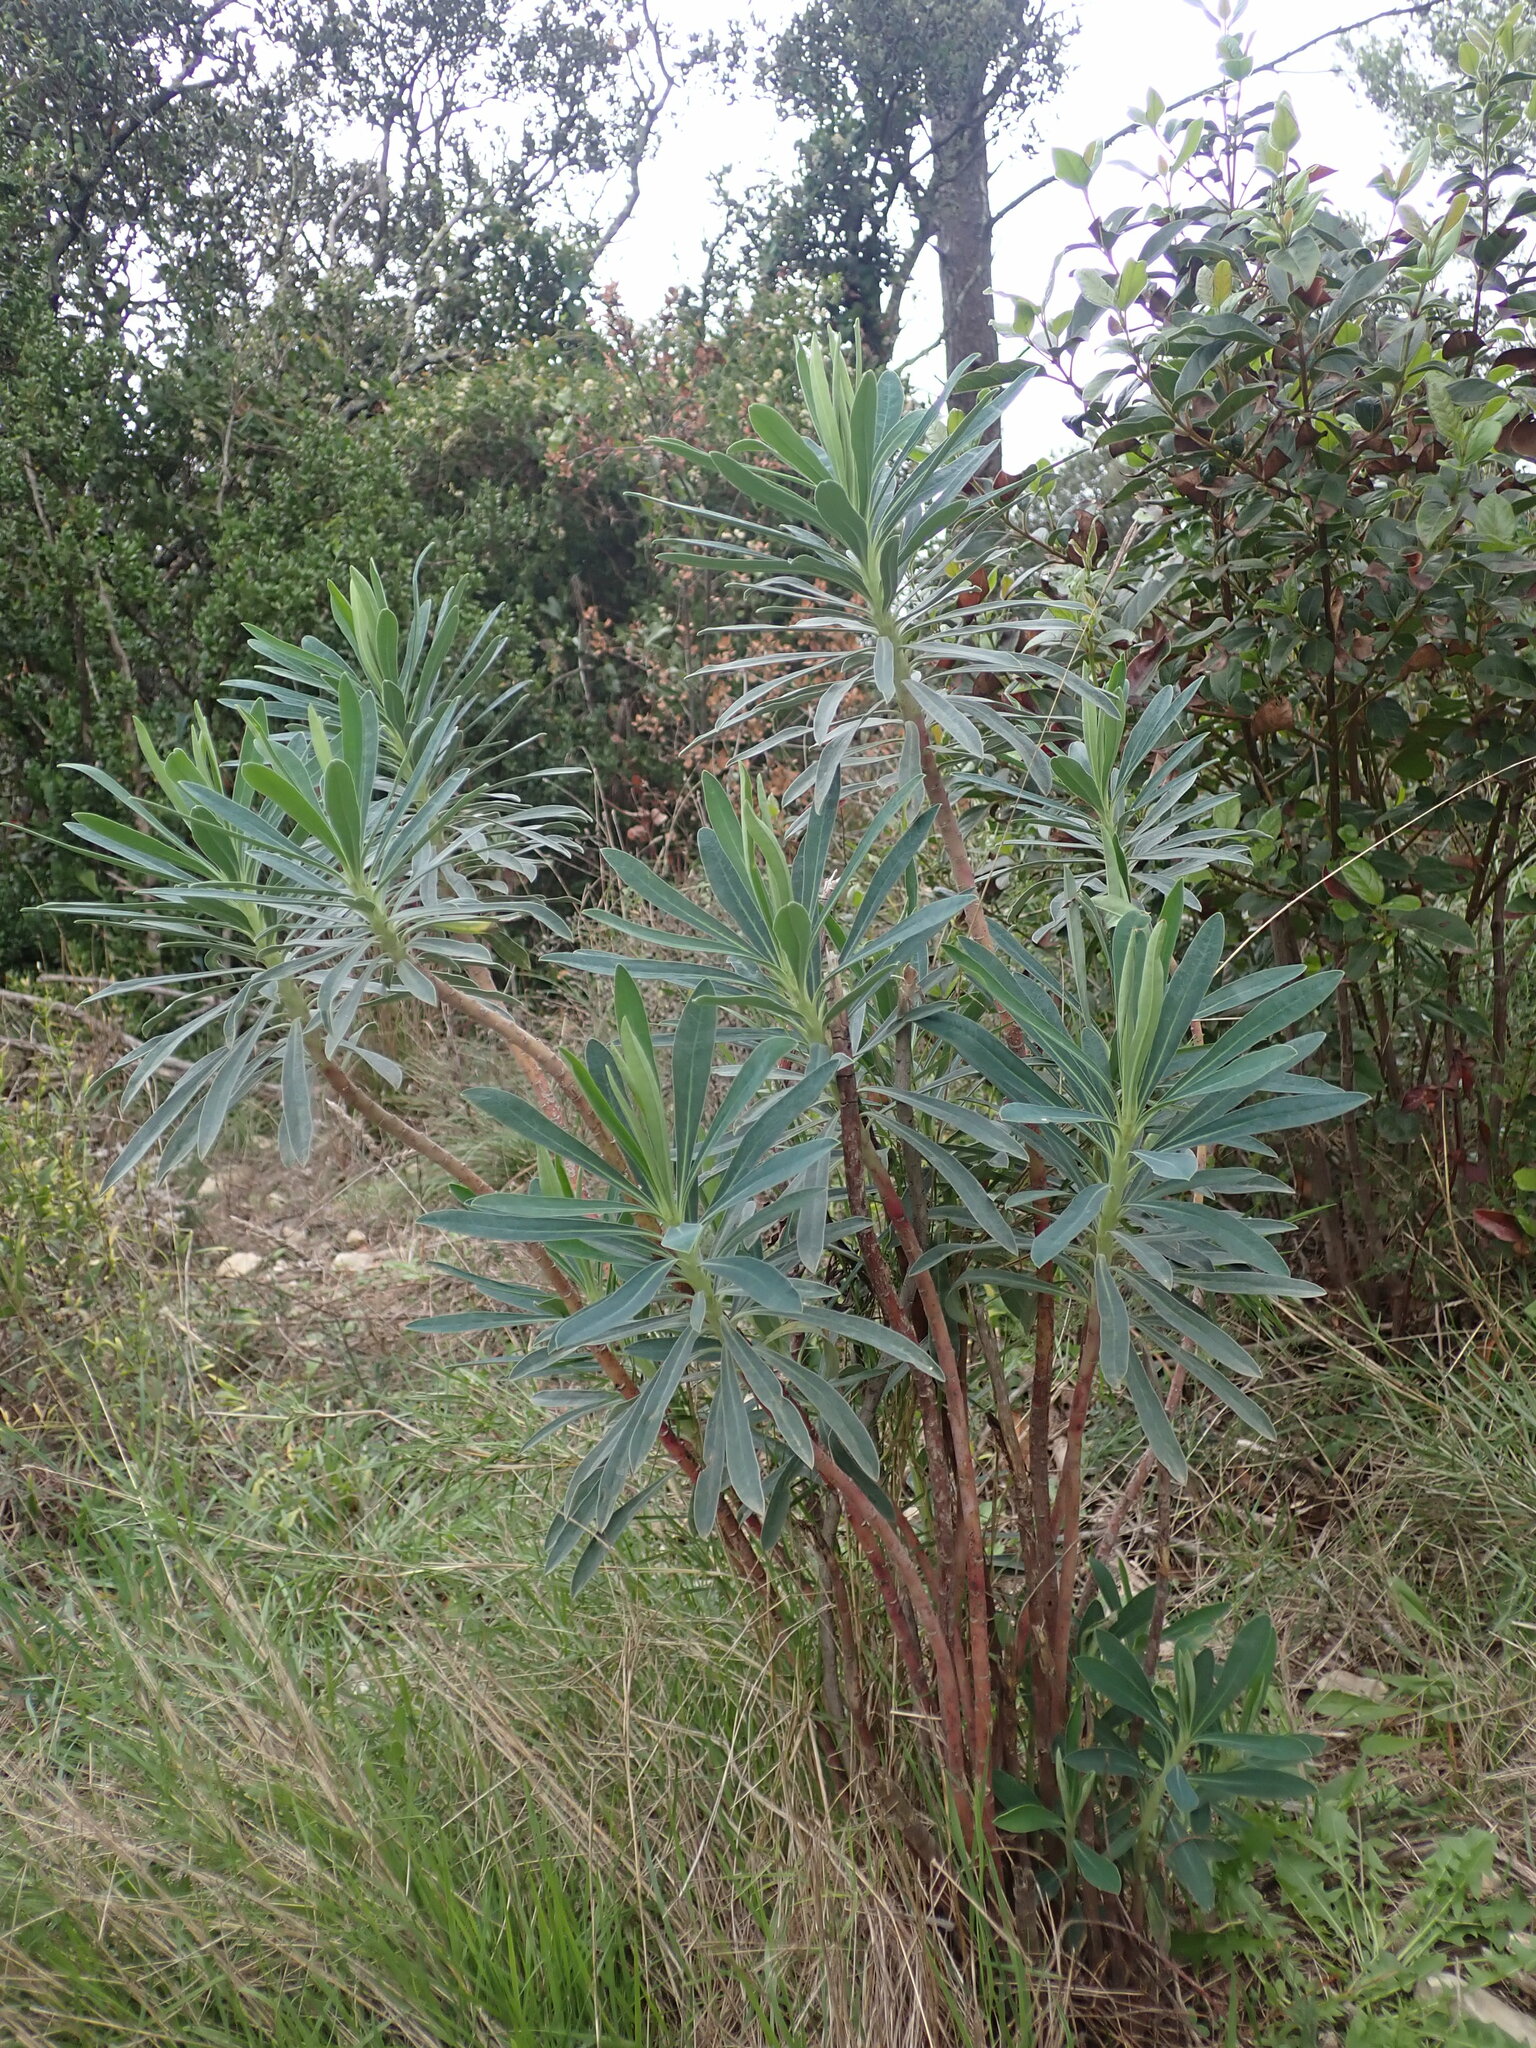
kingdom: Plantae
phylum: Tracheophyta
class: Magnoliopsida
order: Malpighiales
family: Euphorbiaceae
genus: Euphorbia
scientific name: Euphorbia characias
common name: Mediterranean spurge
